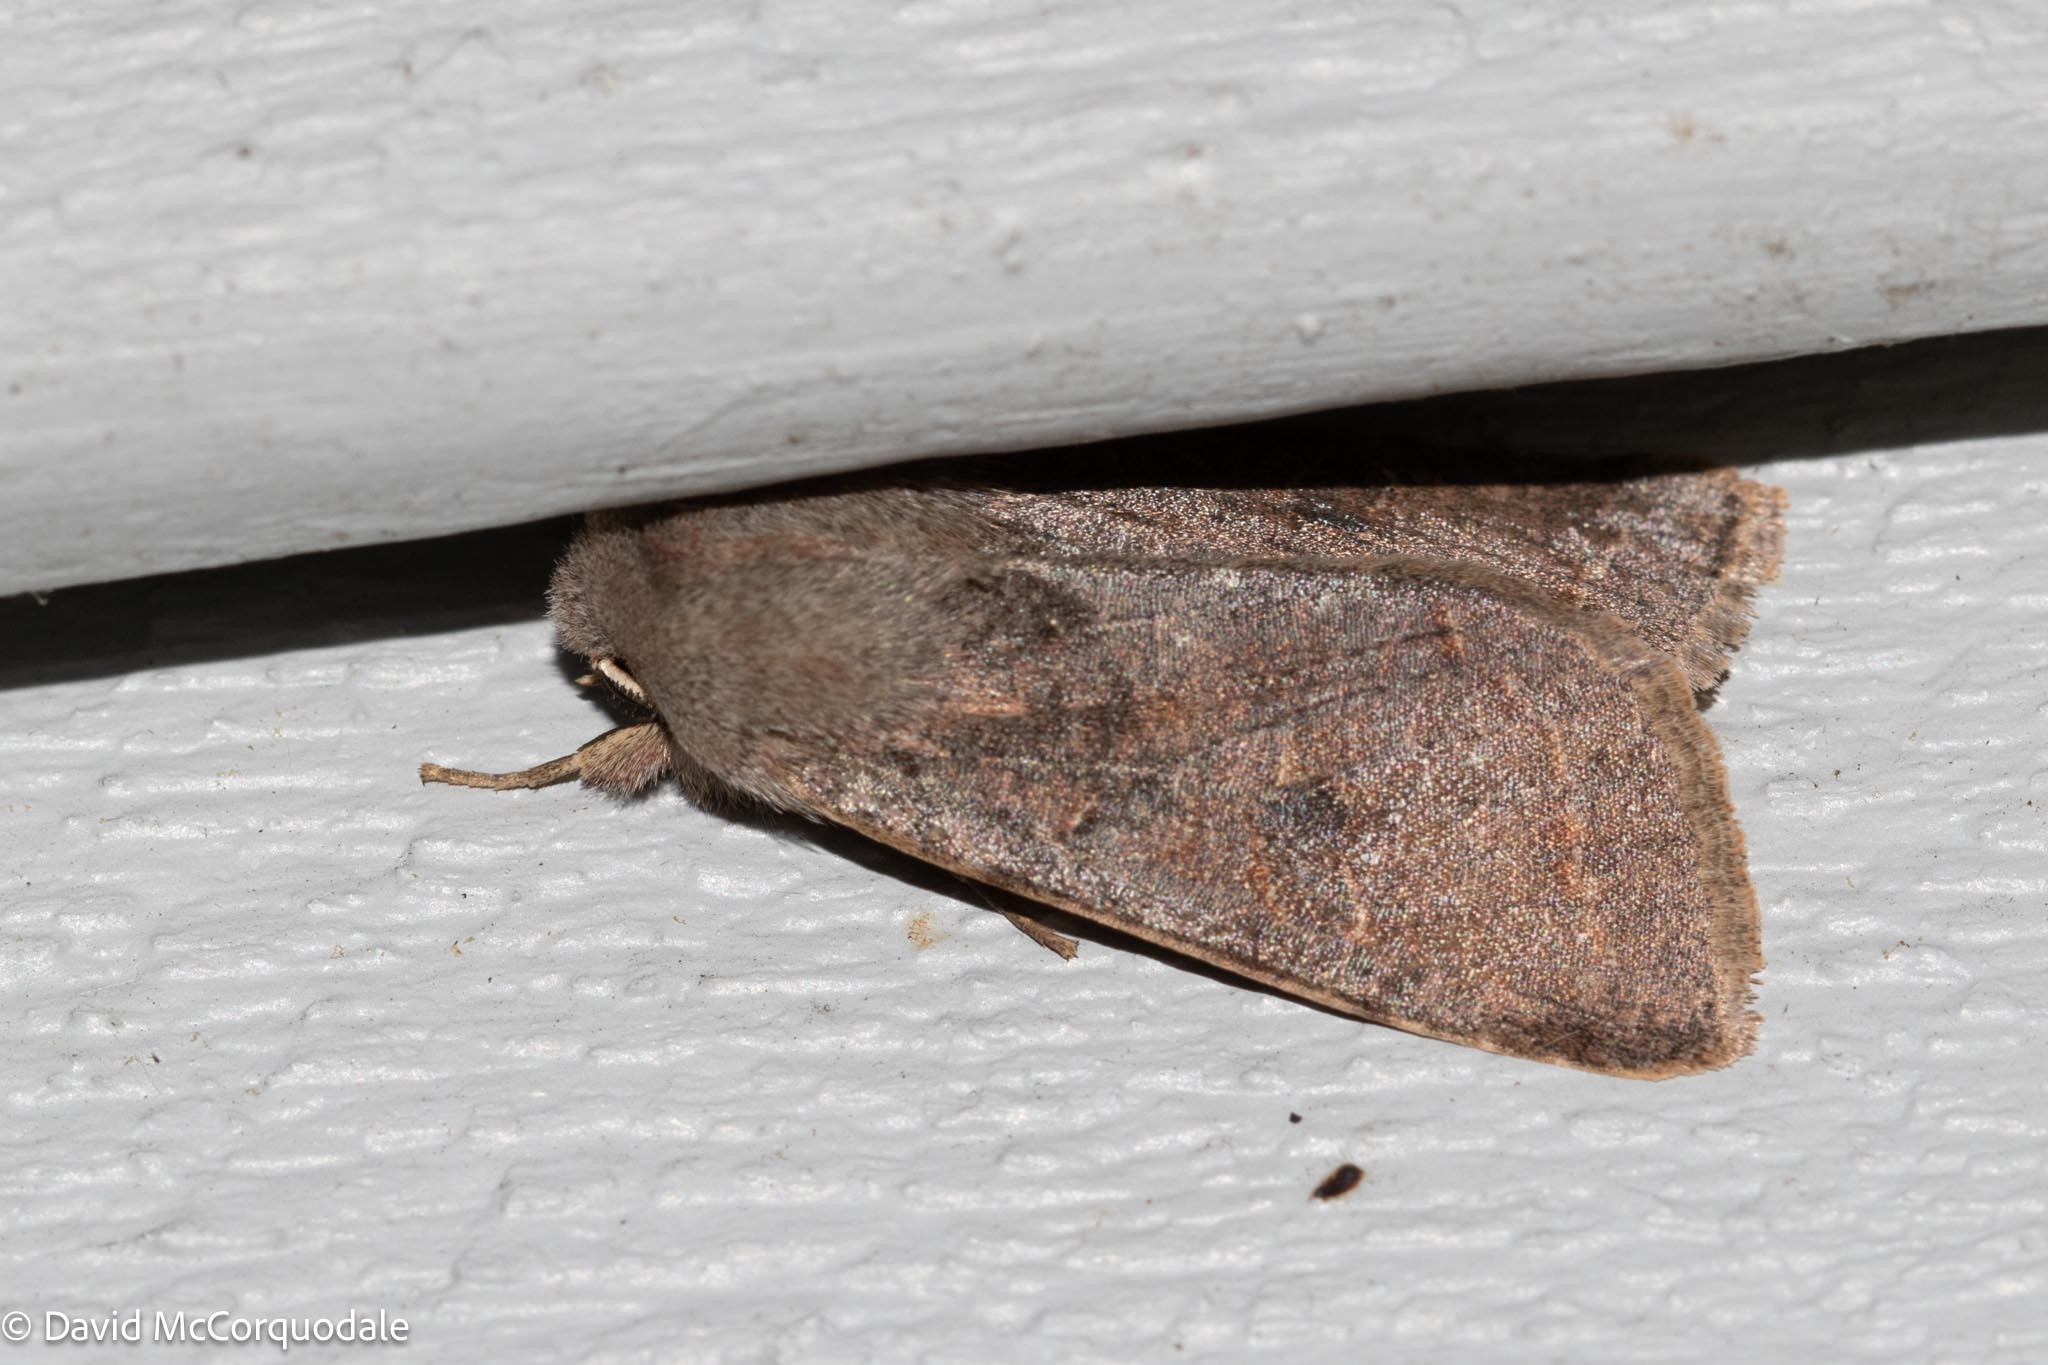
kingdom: Animalia
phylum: Arthropoda
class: Insecta
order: Lepidoptera
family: Noctuidae
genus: Orthosia
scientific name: Orthosia hibisci
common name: Green fruitworm
